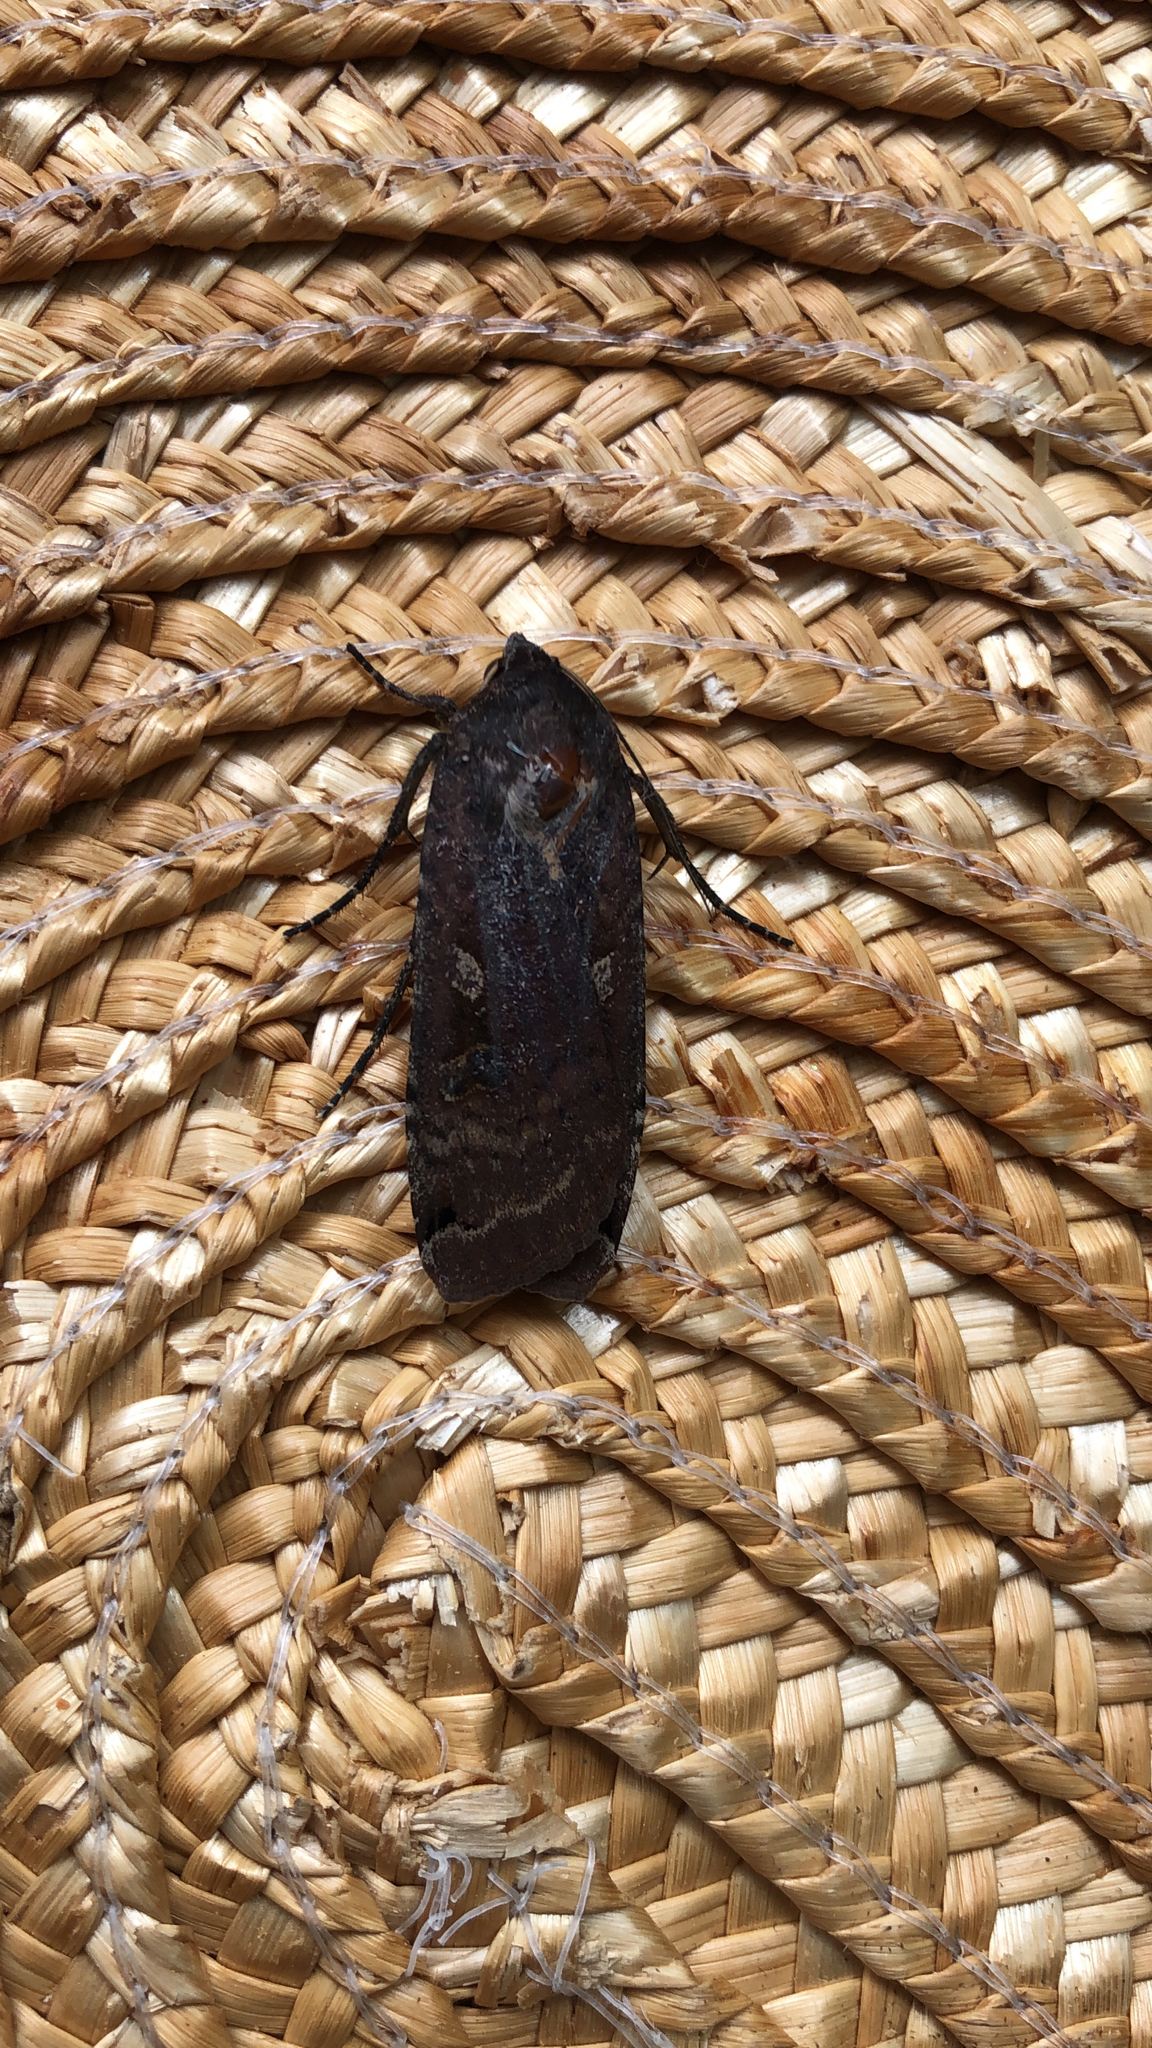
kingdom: Animalia
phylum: Arthropoda
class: Insecta
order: Lepidoptera
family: Noctuidae
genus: Noctua
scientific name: Noctua pronuba
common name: Large yellow underwing
